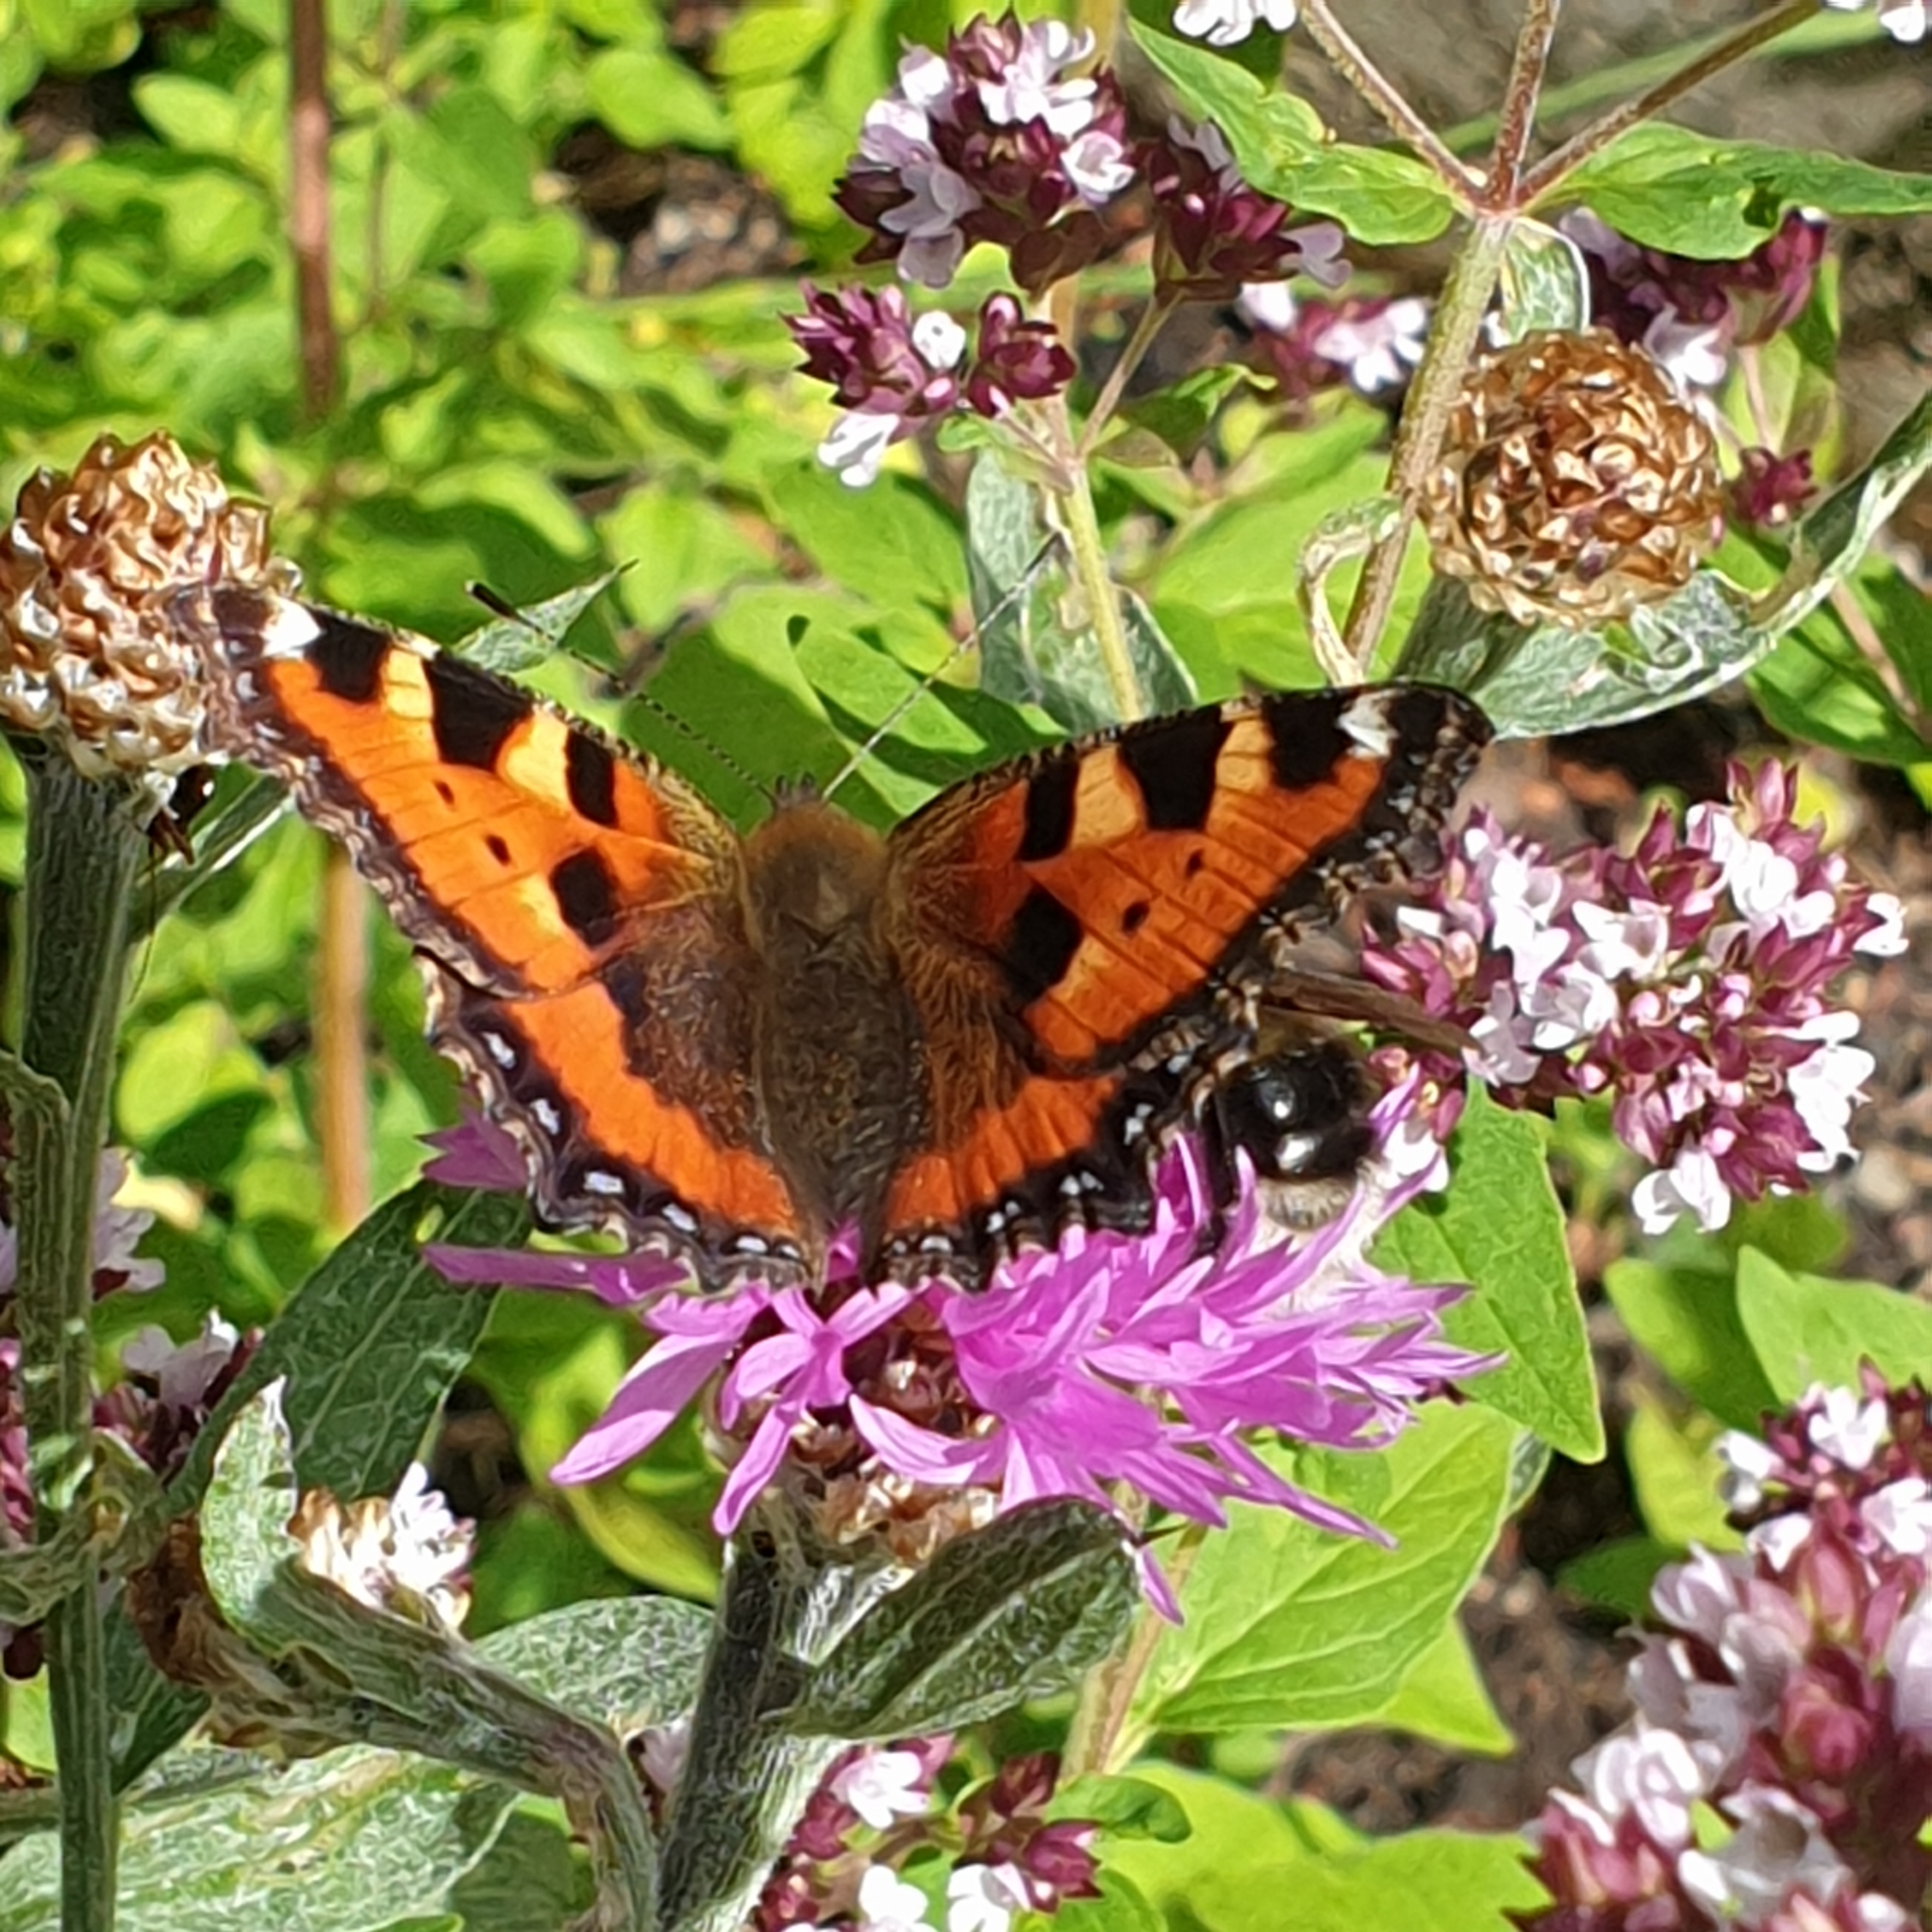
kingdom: Animalia
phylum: Arthropoda
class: Insecta
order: Lepidoptera
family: Nymphalidae
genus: Aglais
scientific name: Aglais urticae
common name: Small tortoiseshell
